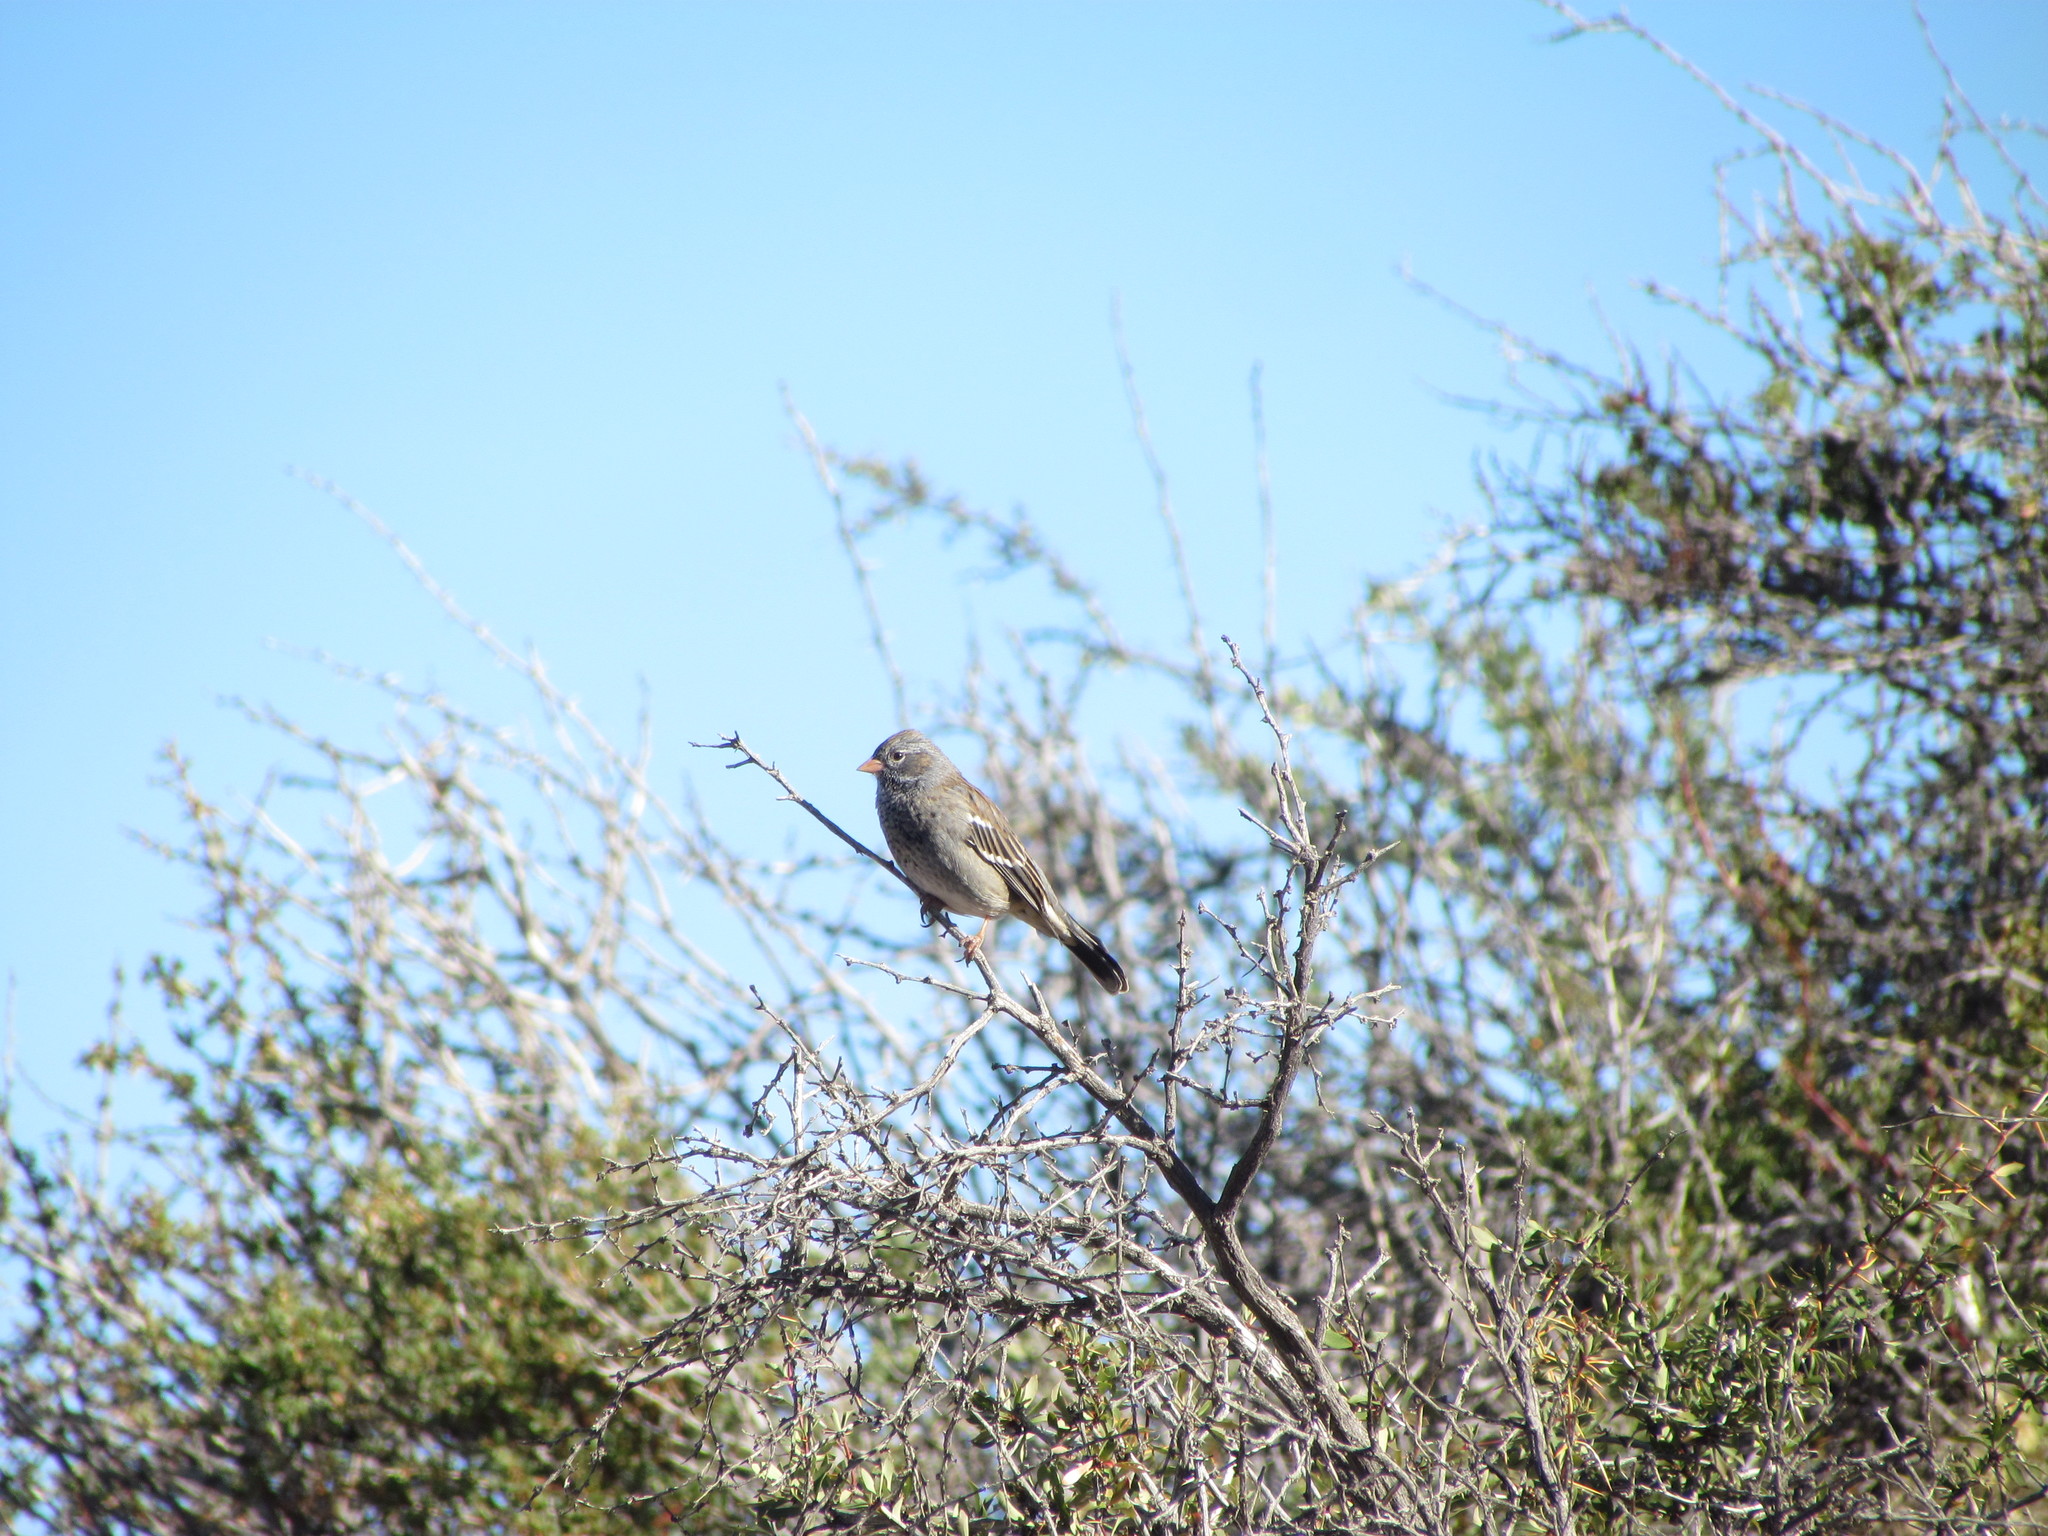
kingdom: Animalia
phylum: Chordata
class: Aves
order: Passeriformes
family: Thraupidae
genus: Rhopospina
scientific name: Rhopospina fruticeti
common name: Mourning sierra finch
